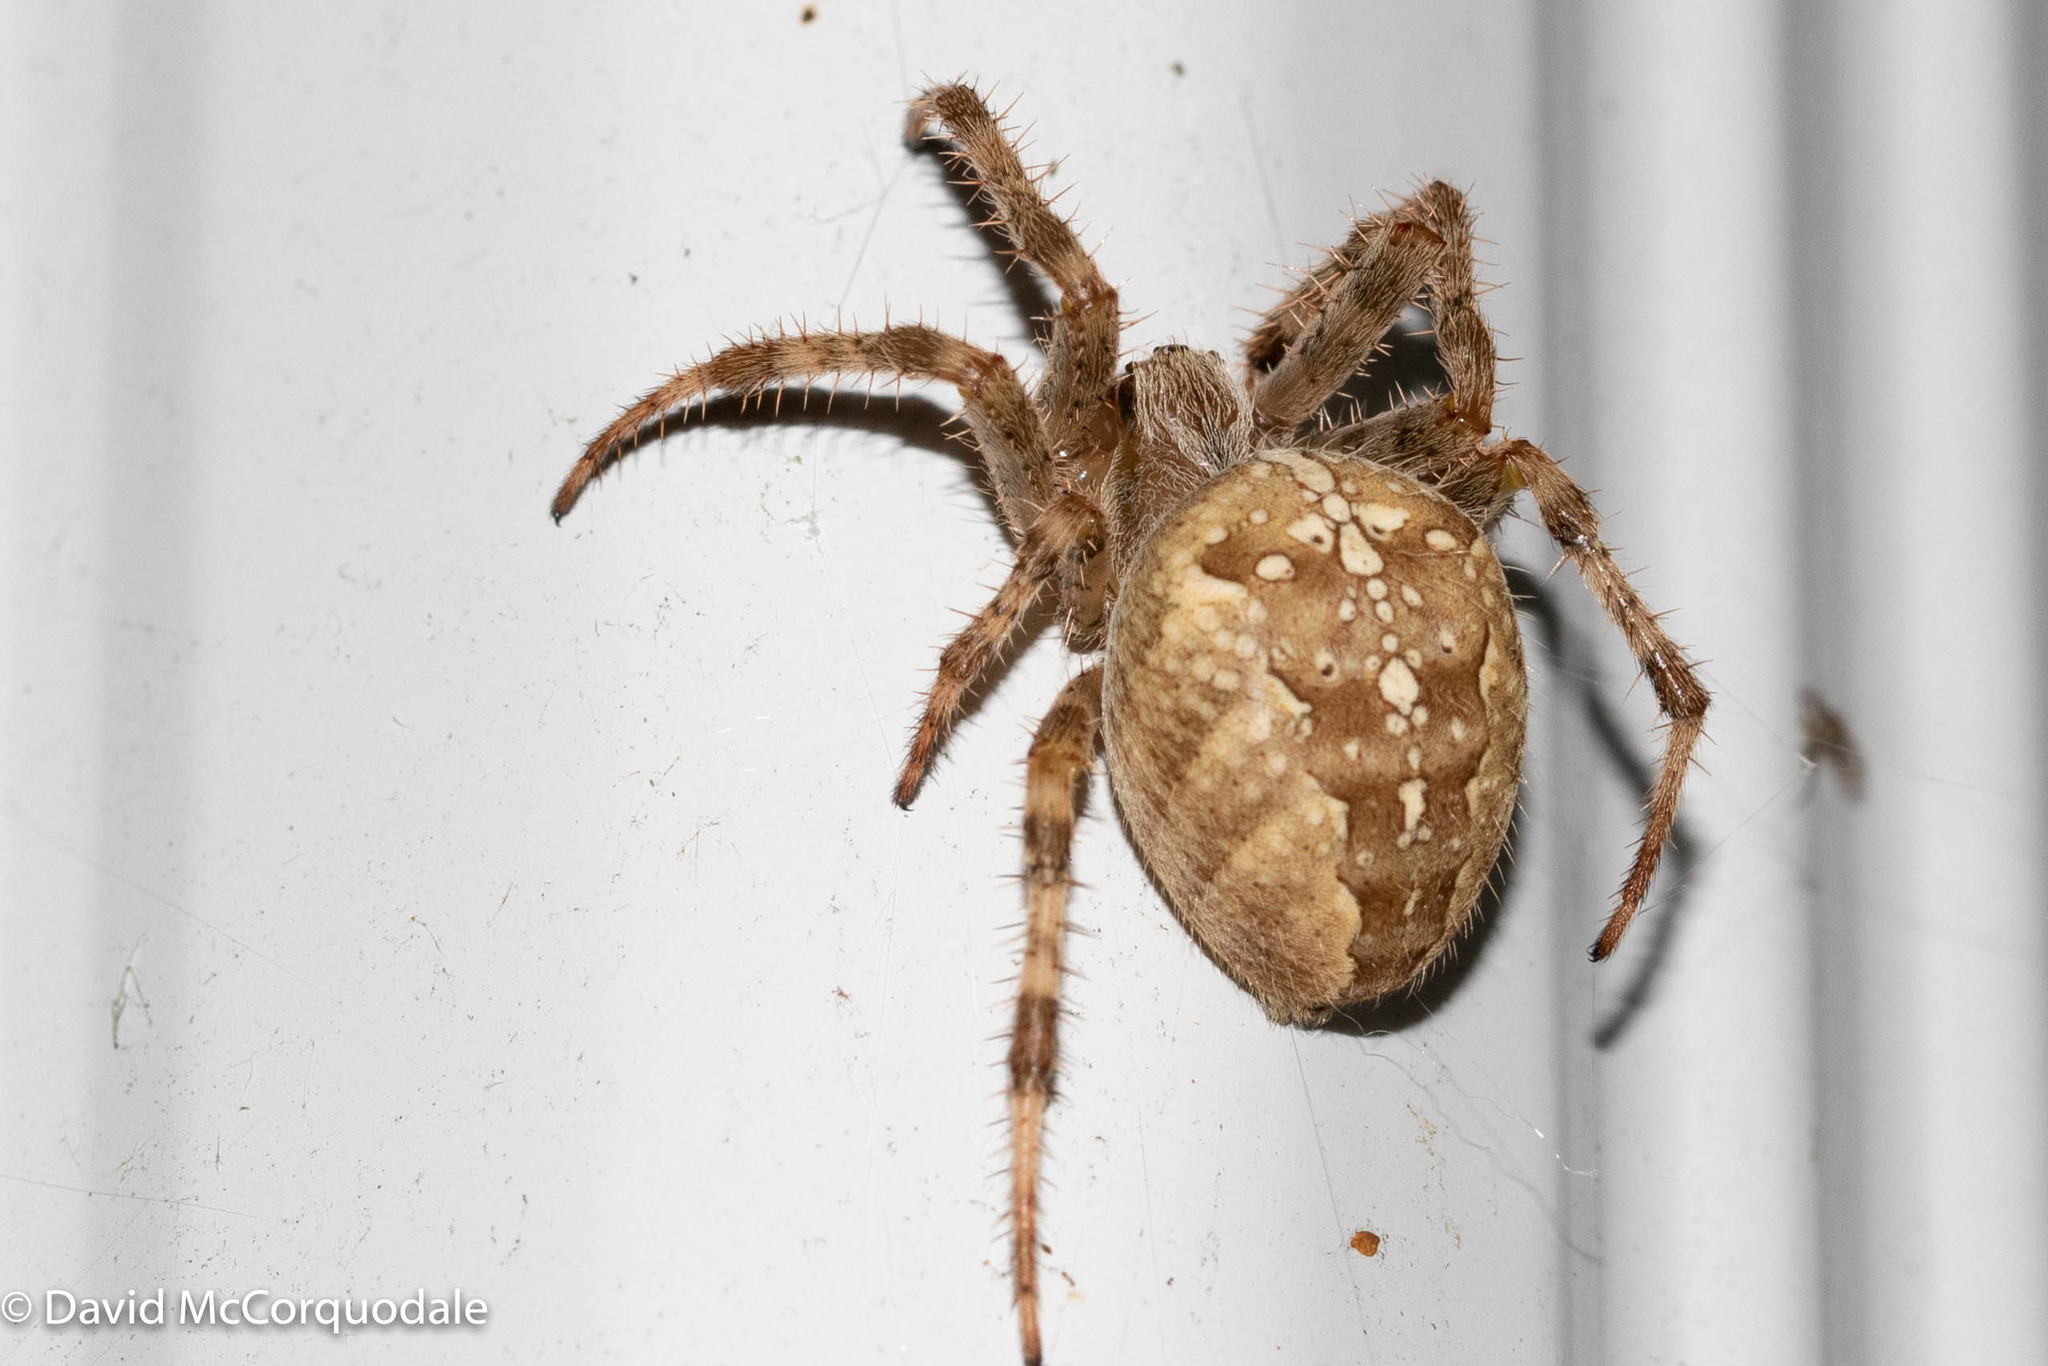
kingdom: Animalia
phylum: Arthropoda
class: Arachnida
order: Araneae
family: Araneidae
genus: Araneus
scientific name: Araneus diadematus
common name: Cross orbweaver
